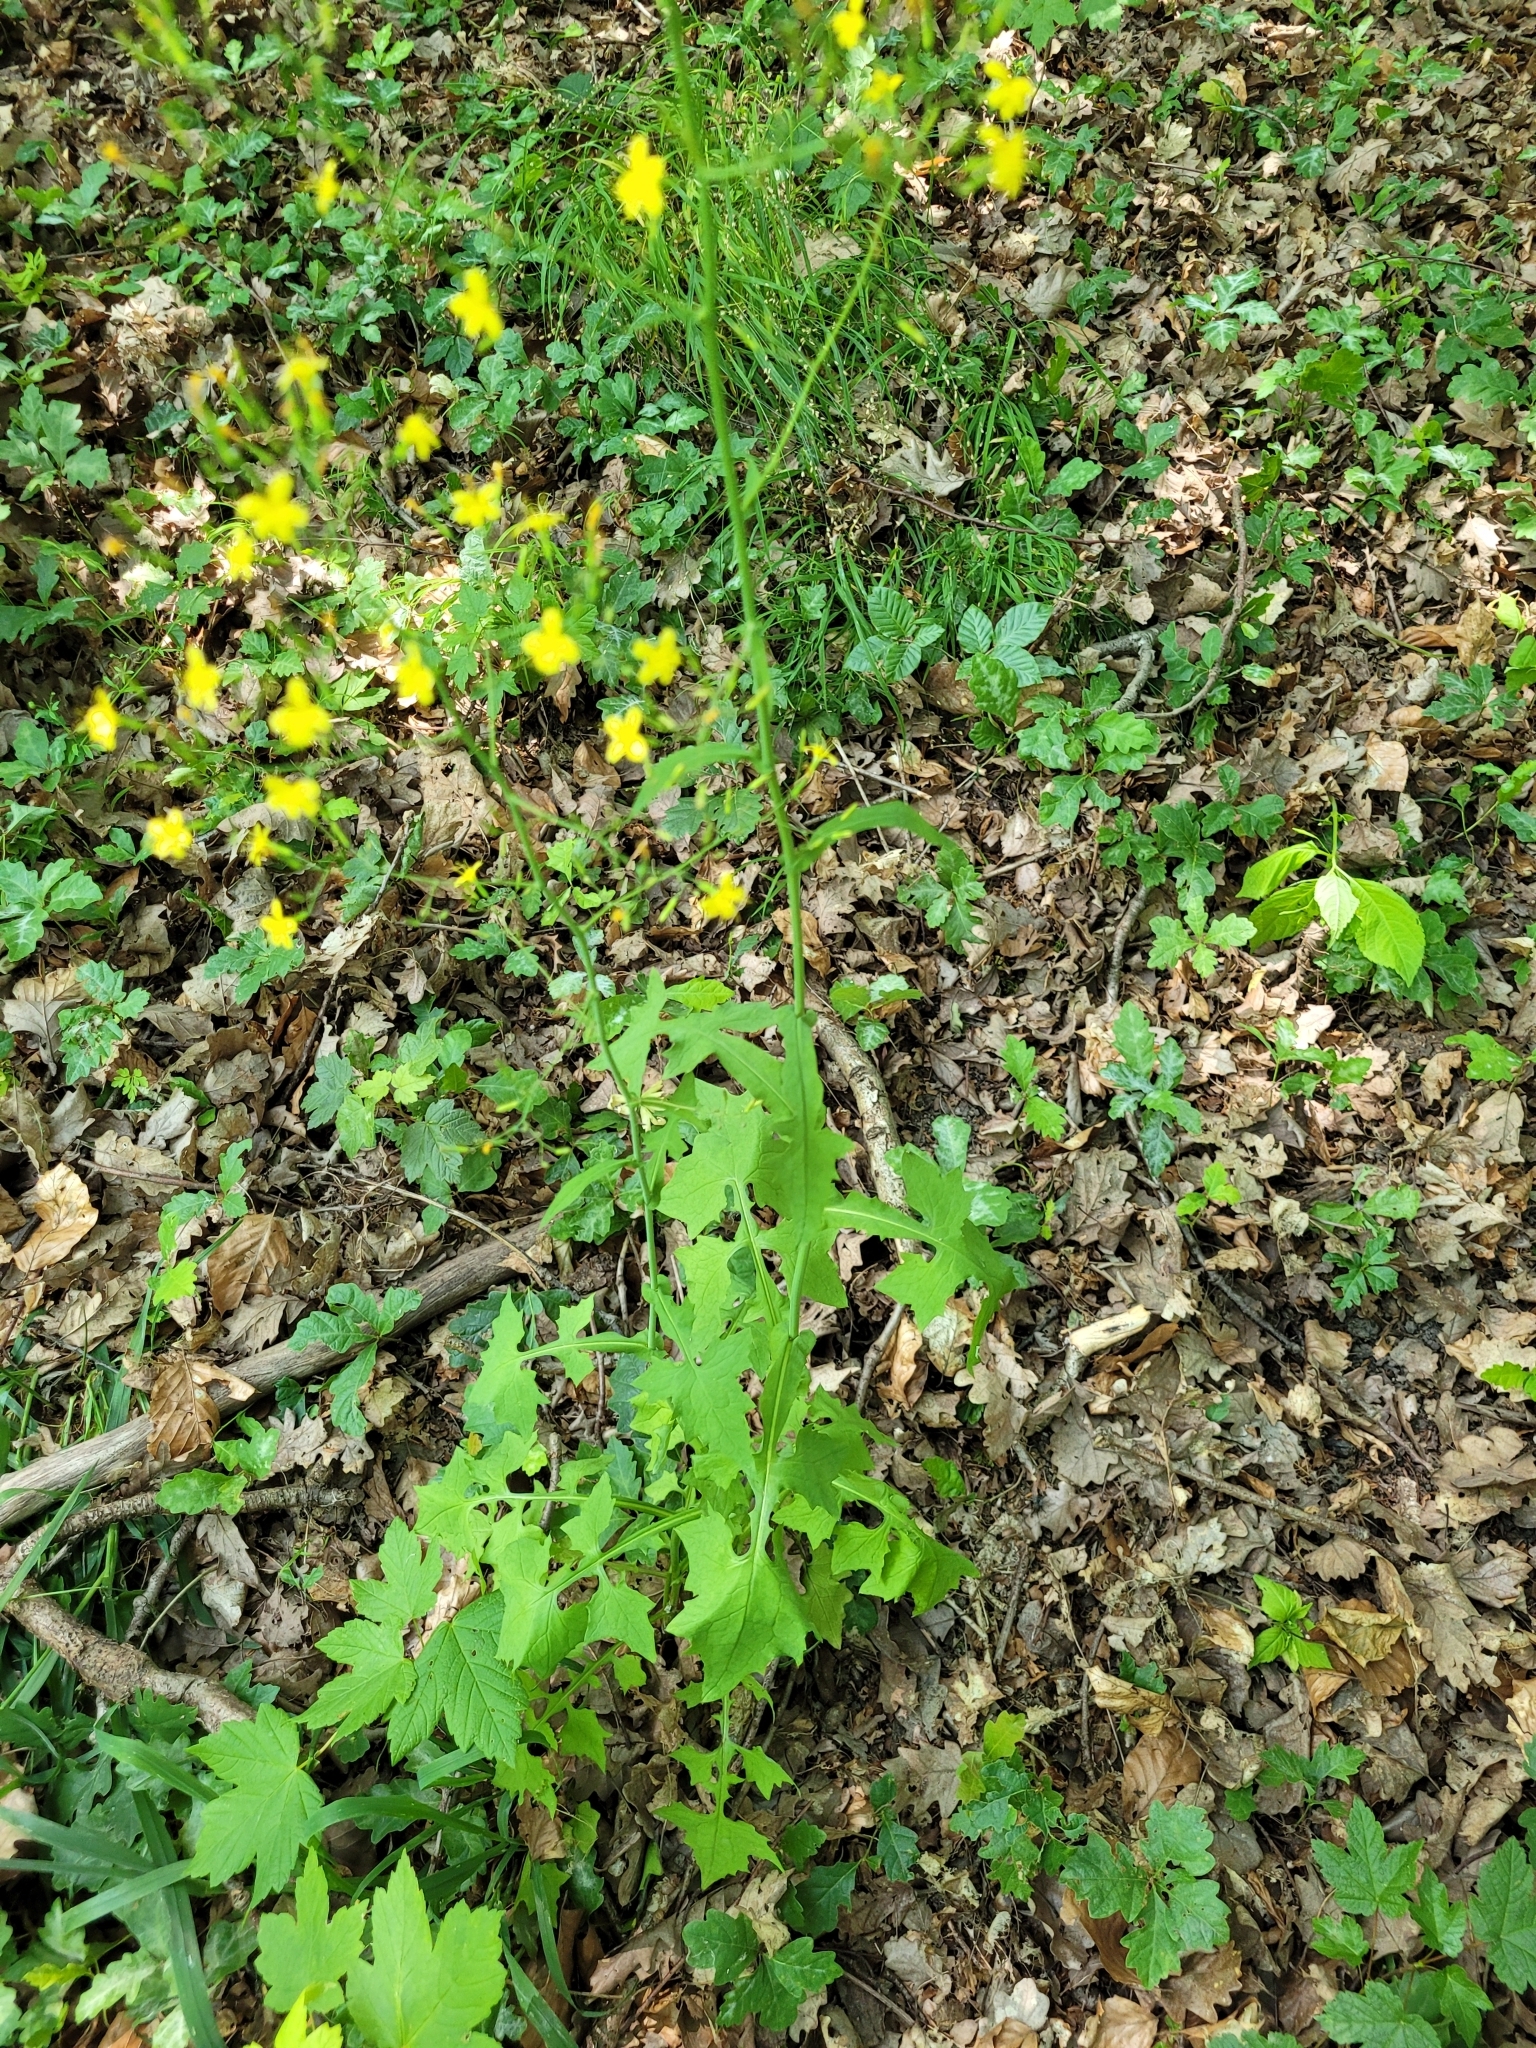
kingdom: Plantae
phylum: Tracheophyta
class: Magnoliopsida
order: Asterales
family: Asteraceae
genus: Mycelis
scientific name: Mycelis muralis
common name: Wall lettuce
